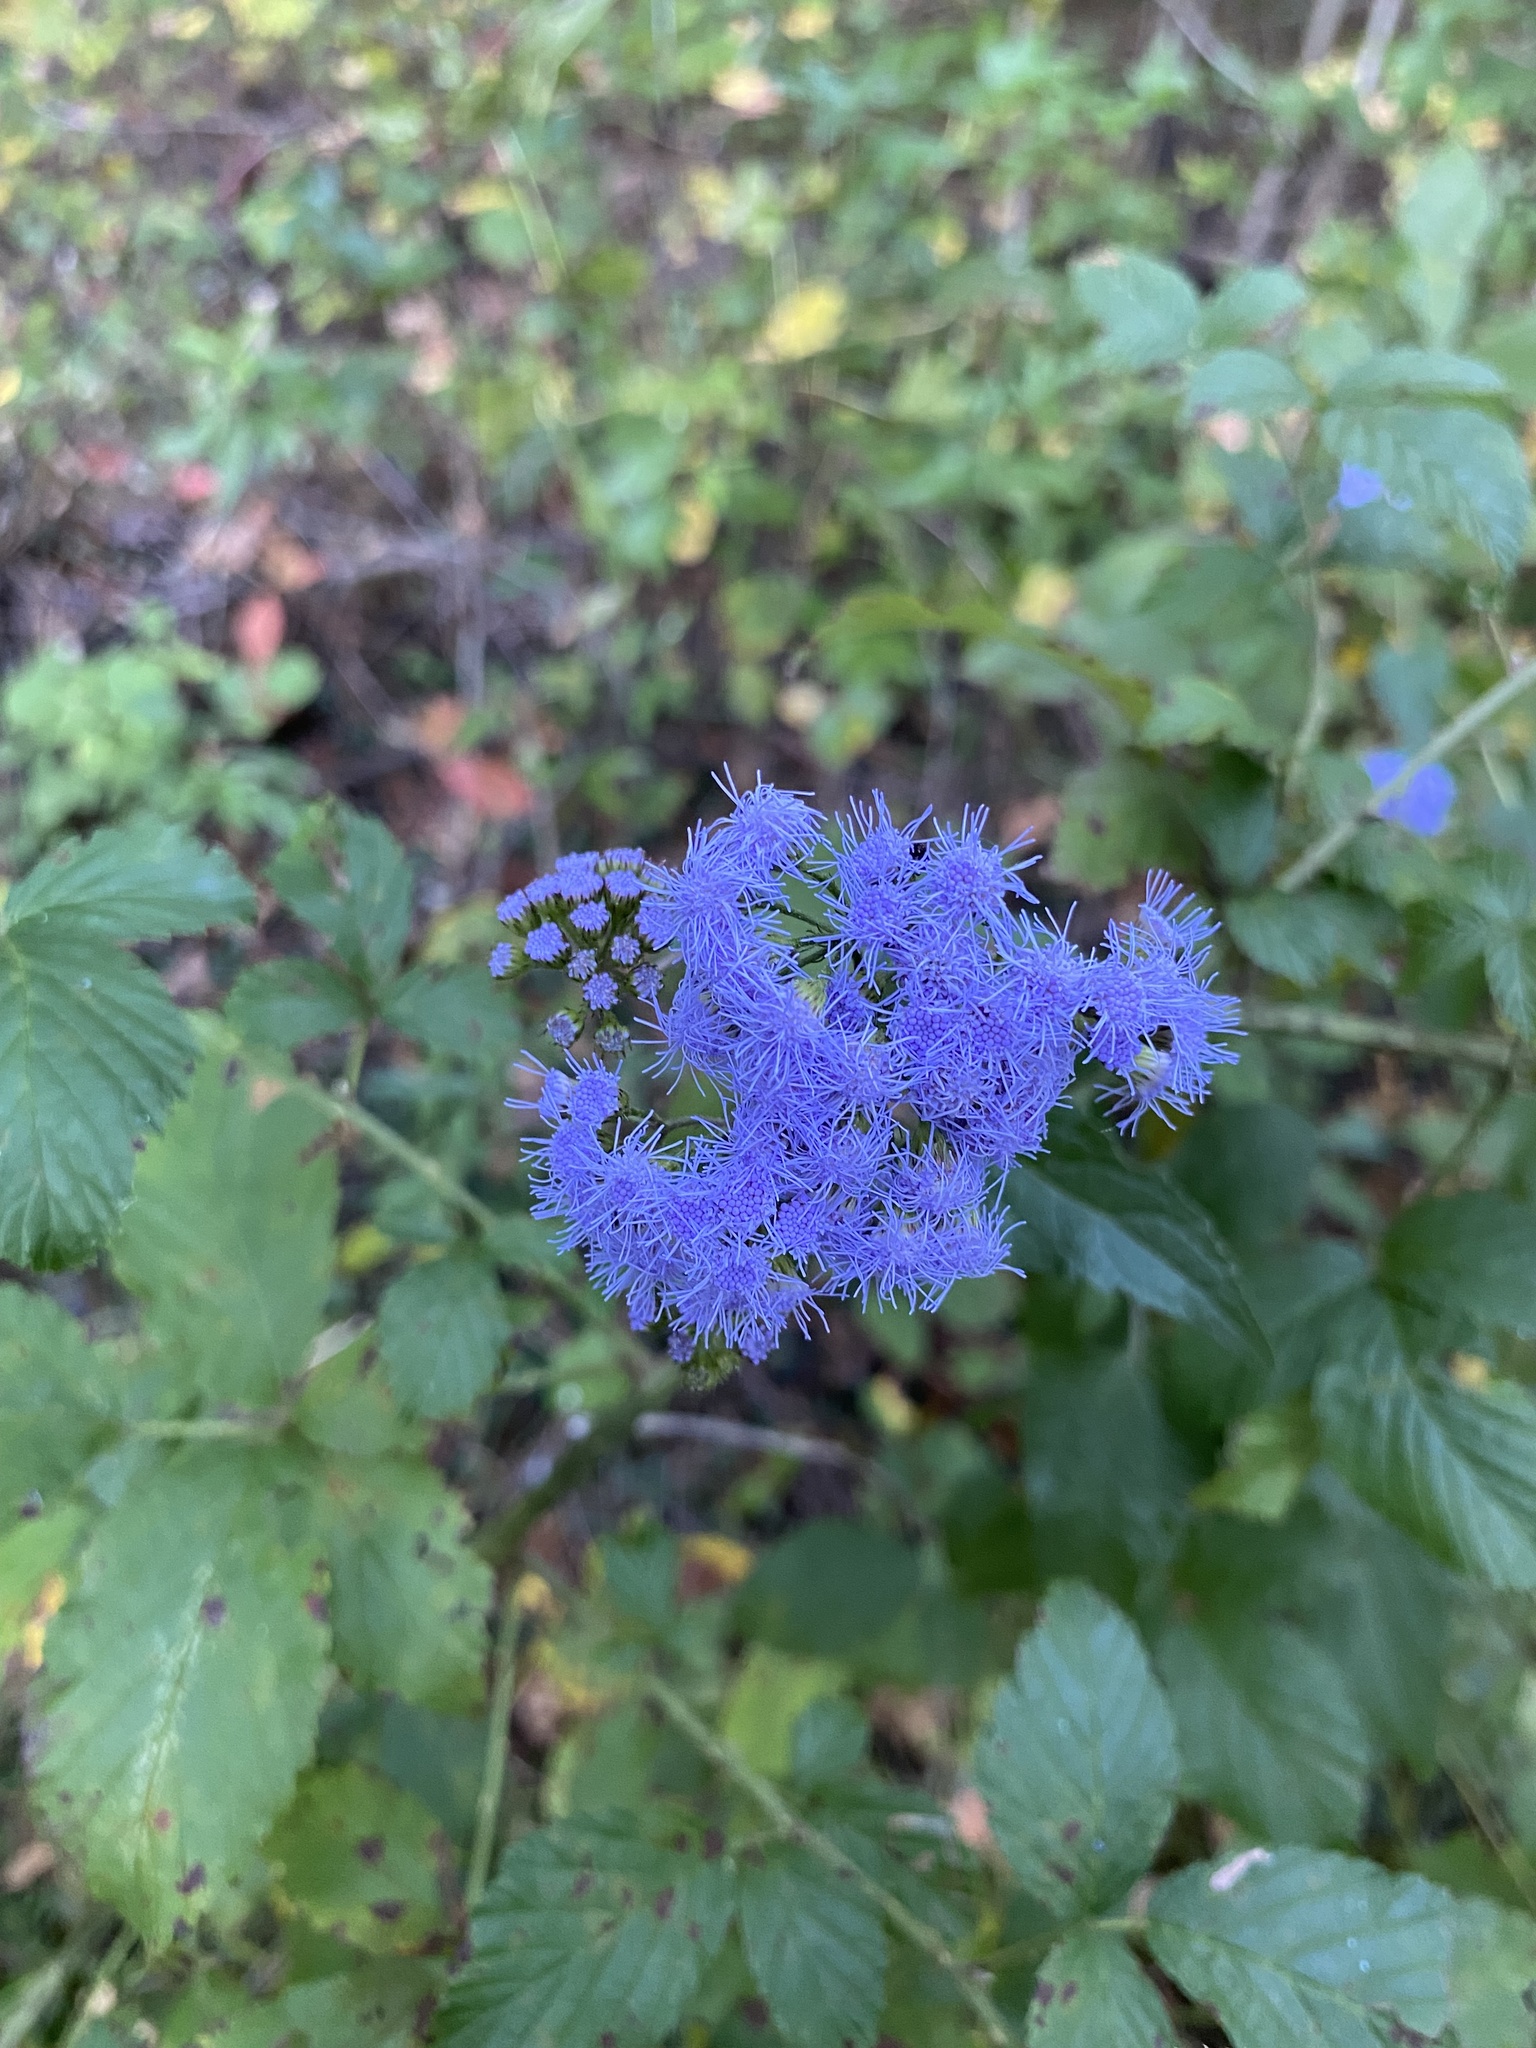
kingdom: Plantae
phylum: Tracheophyta
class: Magnoliopsida
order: Asterales
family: Asteraceae
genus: Conoclinium
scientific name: Conoclinium coelestinum
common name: Blue mistflower
